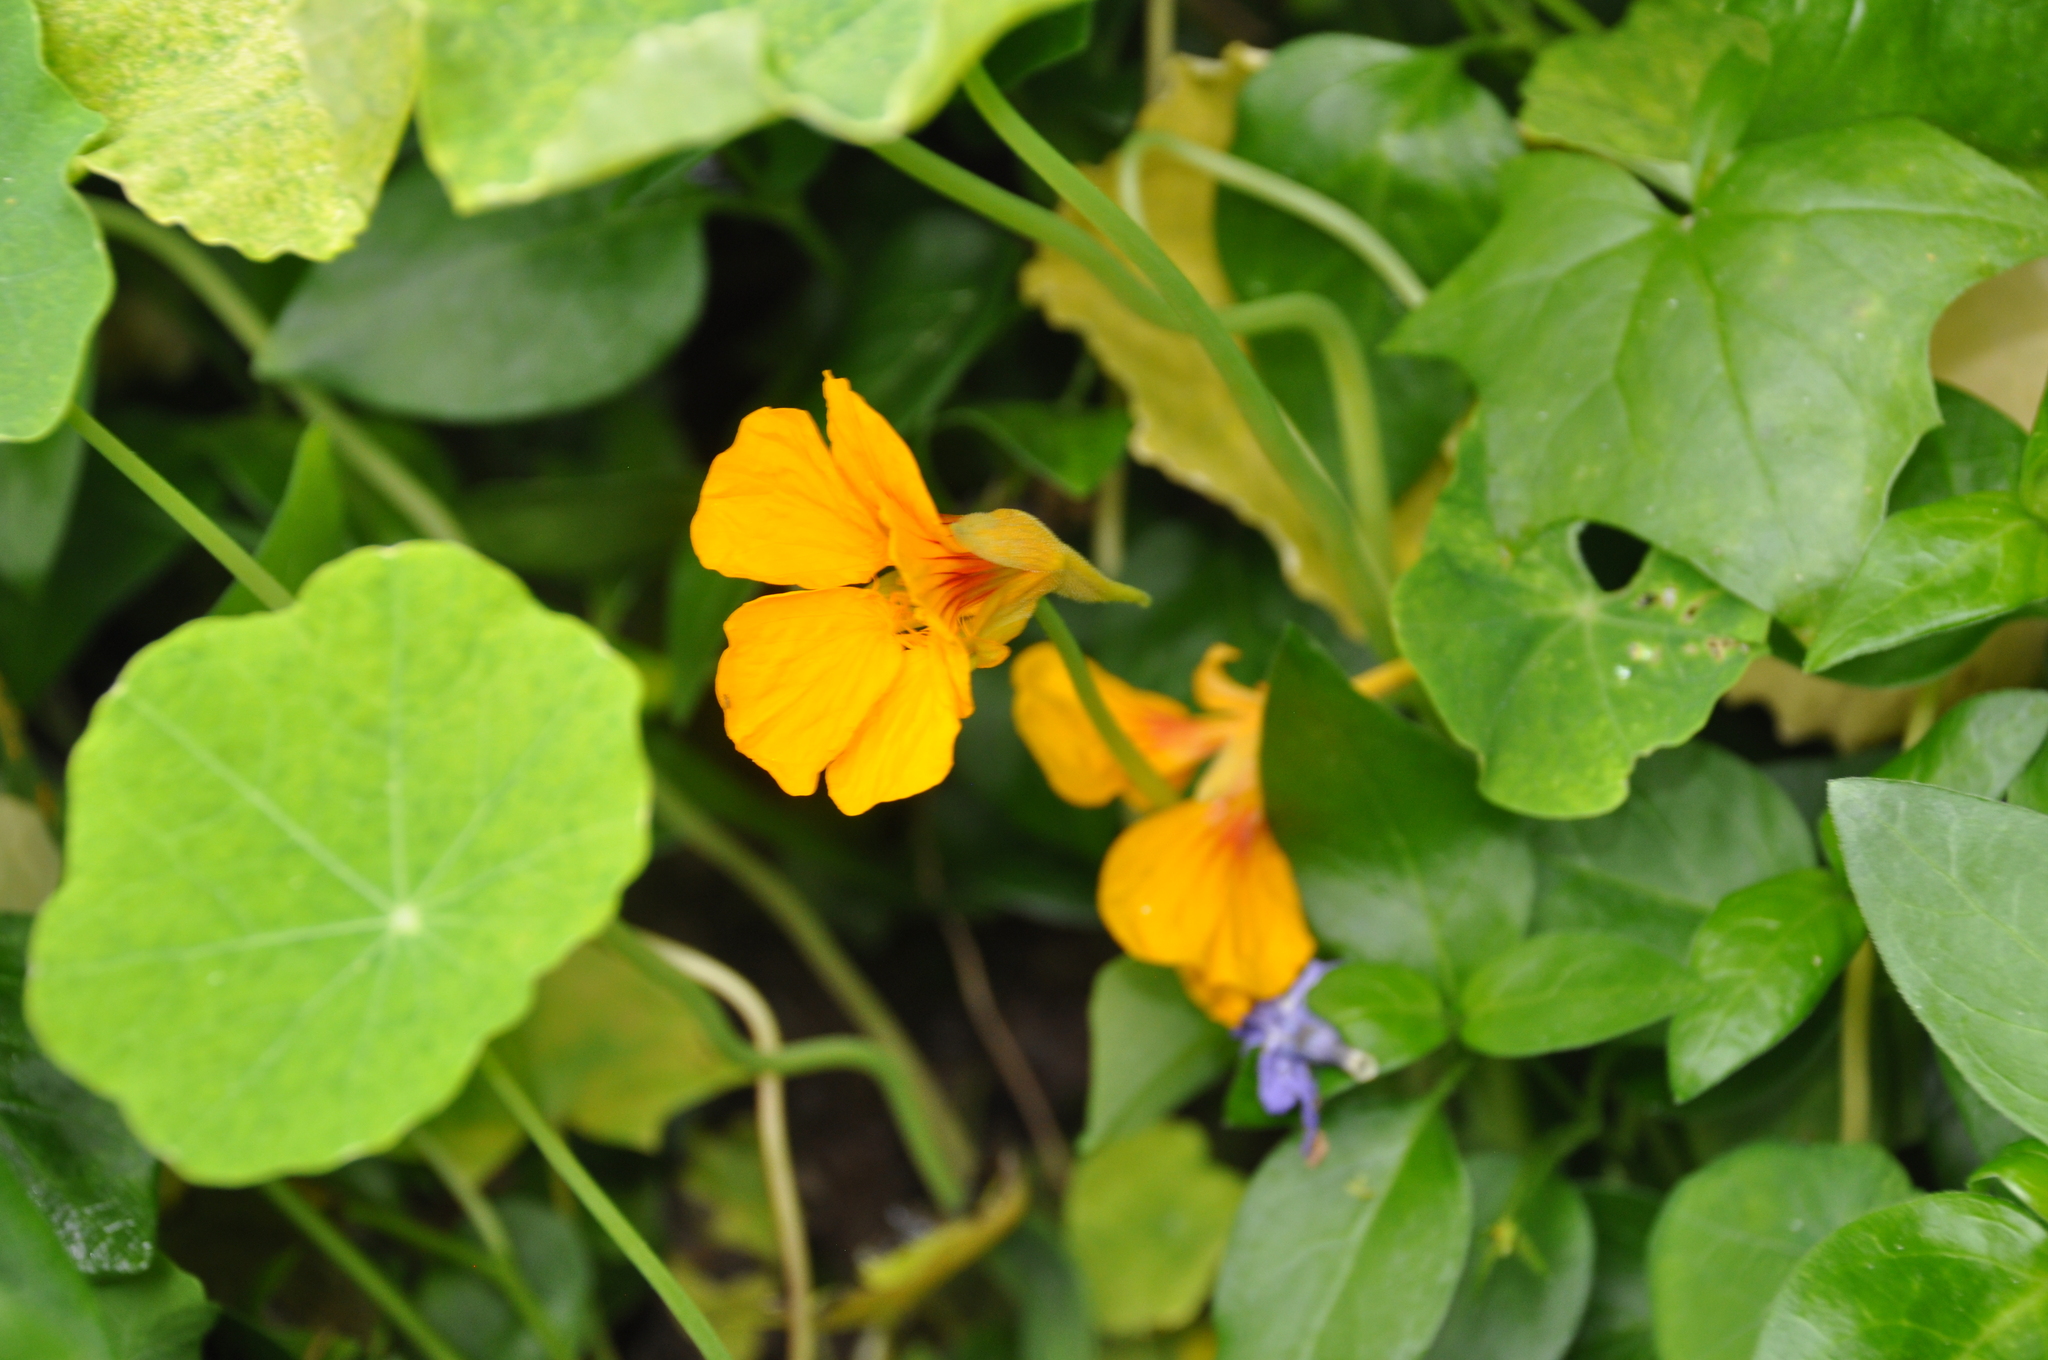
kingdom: Plantae
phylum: Tracheophyta
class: Magnoliopsida
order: Brassicales
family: Tropaeolaceae
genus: Tropaeolum
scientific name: Tropaeolum majus
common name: Nasturtium
